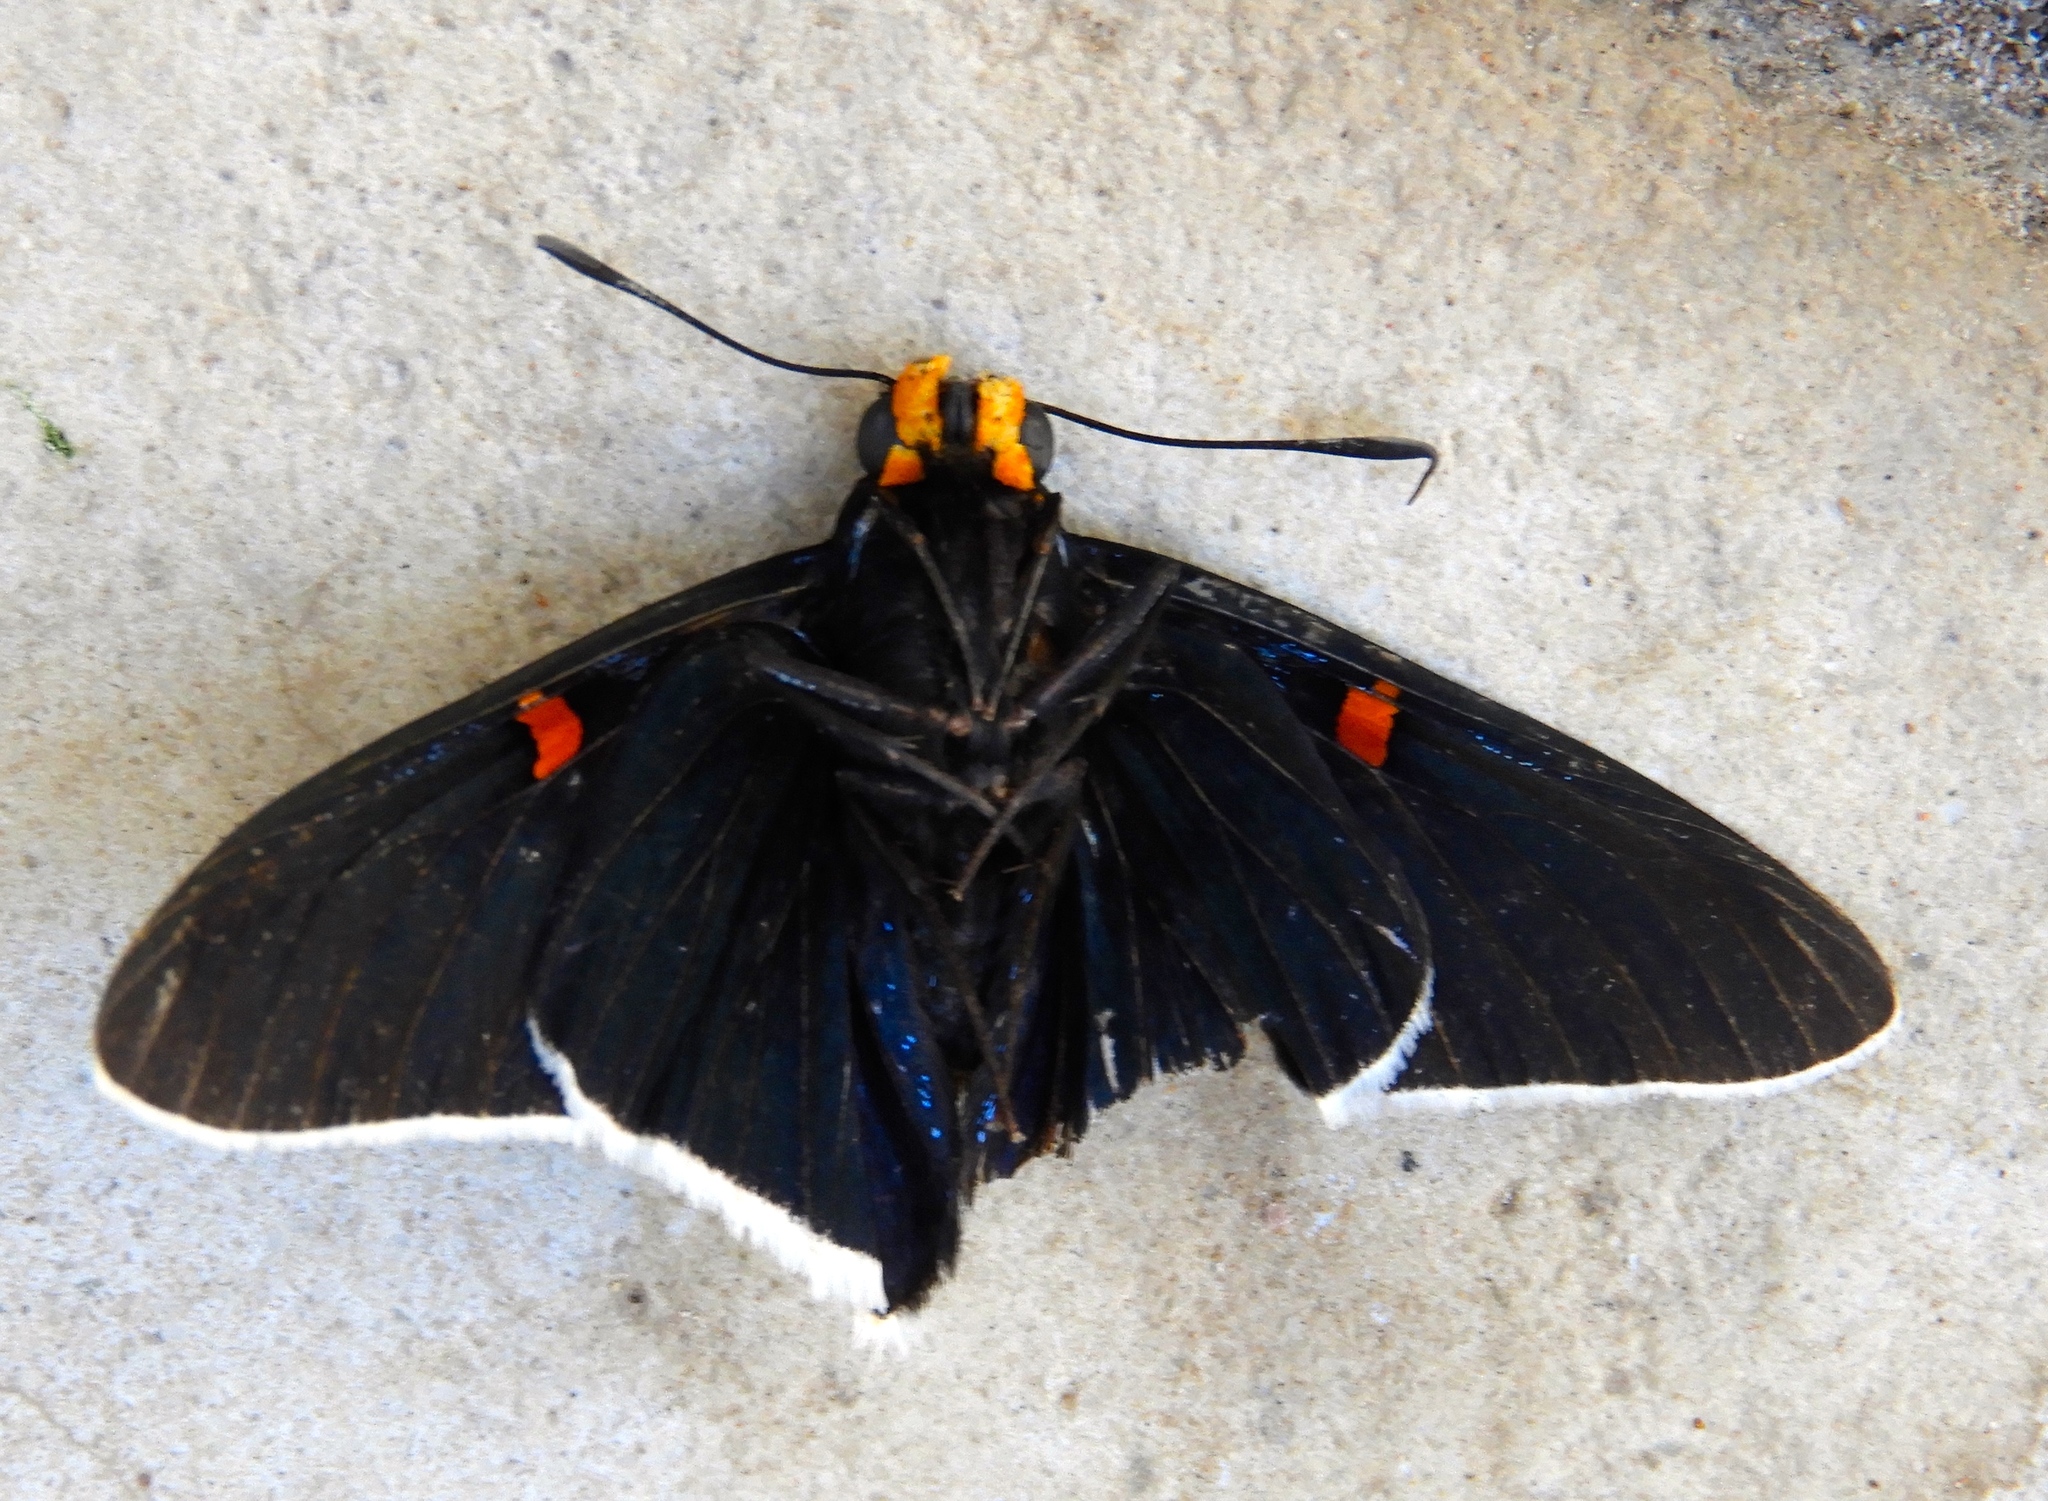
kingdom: Animalia
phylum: Arthropoda
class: Insecta
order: Lepidoptera
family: Hesperiidae
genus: Phocides
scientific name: Phocides lilea
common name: Guava skipper
